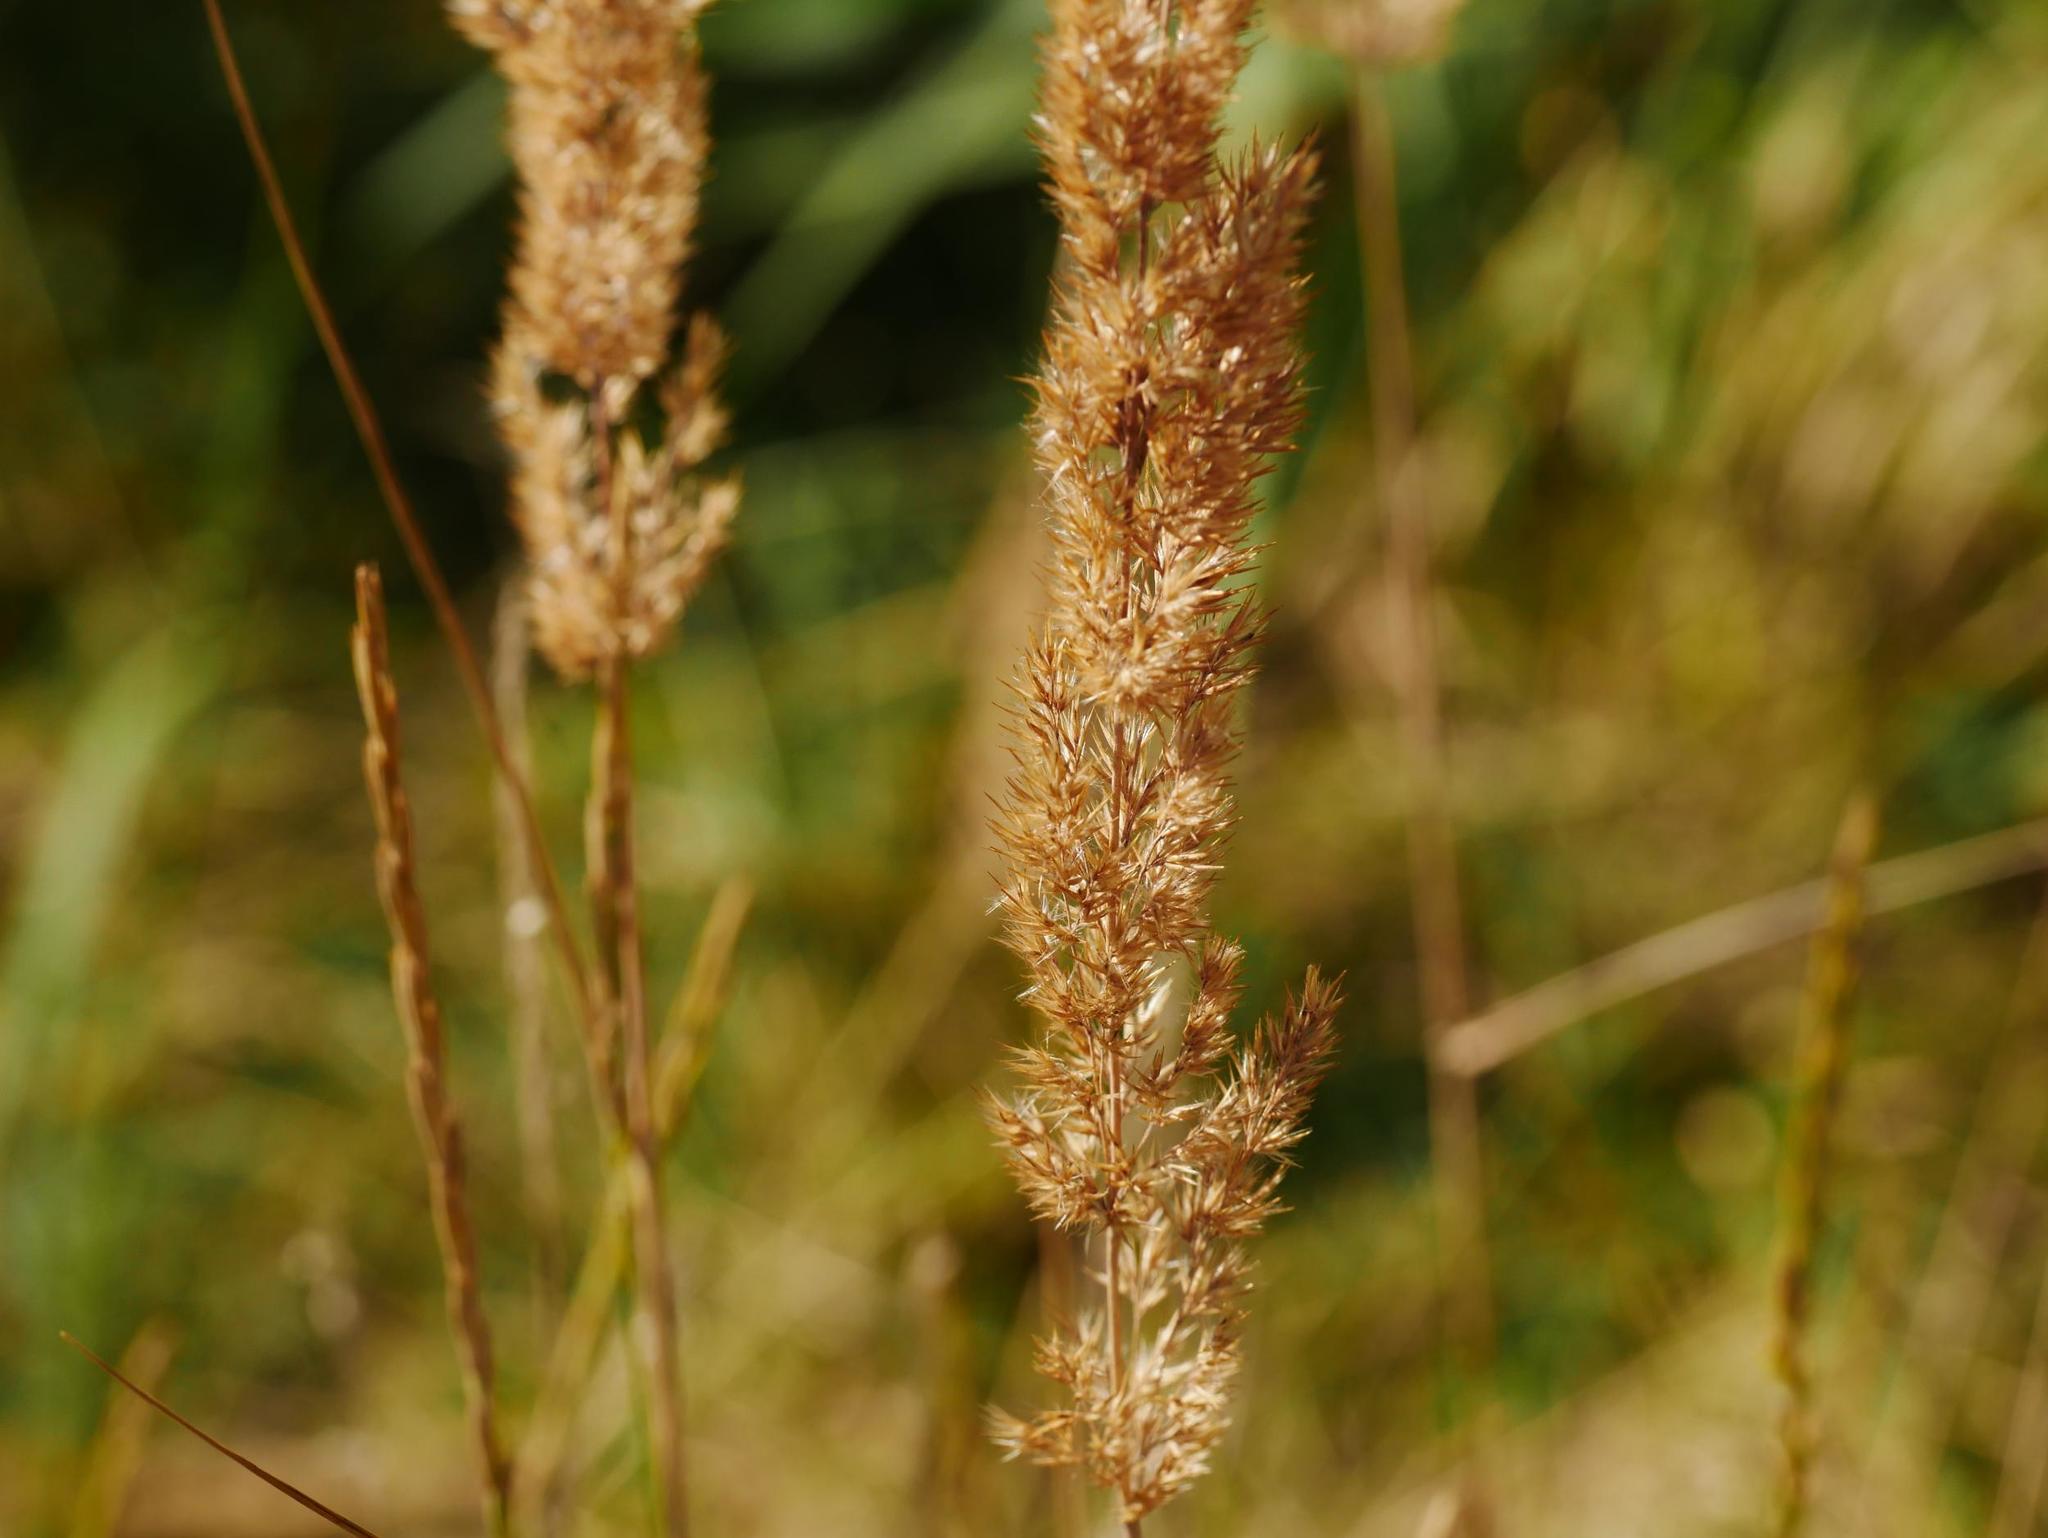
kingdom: Plantae
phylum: Tracheophyta
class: Liliopsida
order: Poales
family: Poaceae
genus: Calamagrostis
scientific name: Calamagrostis epigejos
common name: Wood small-reed
